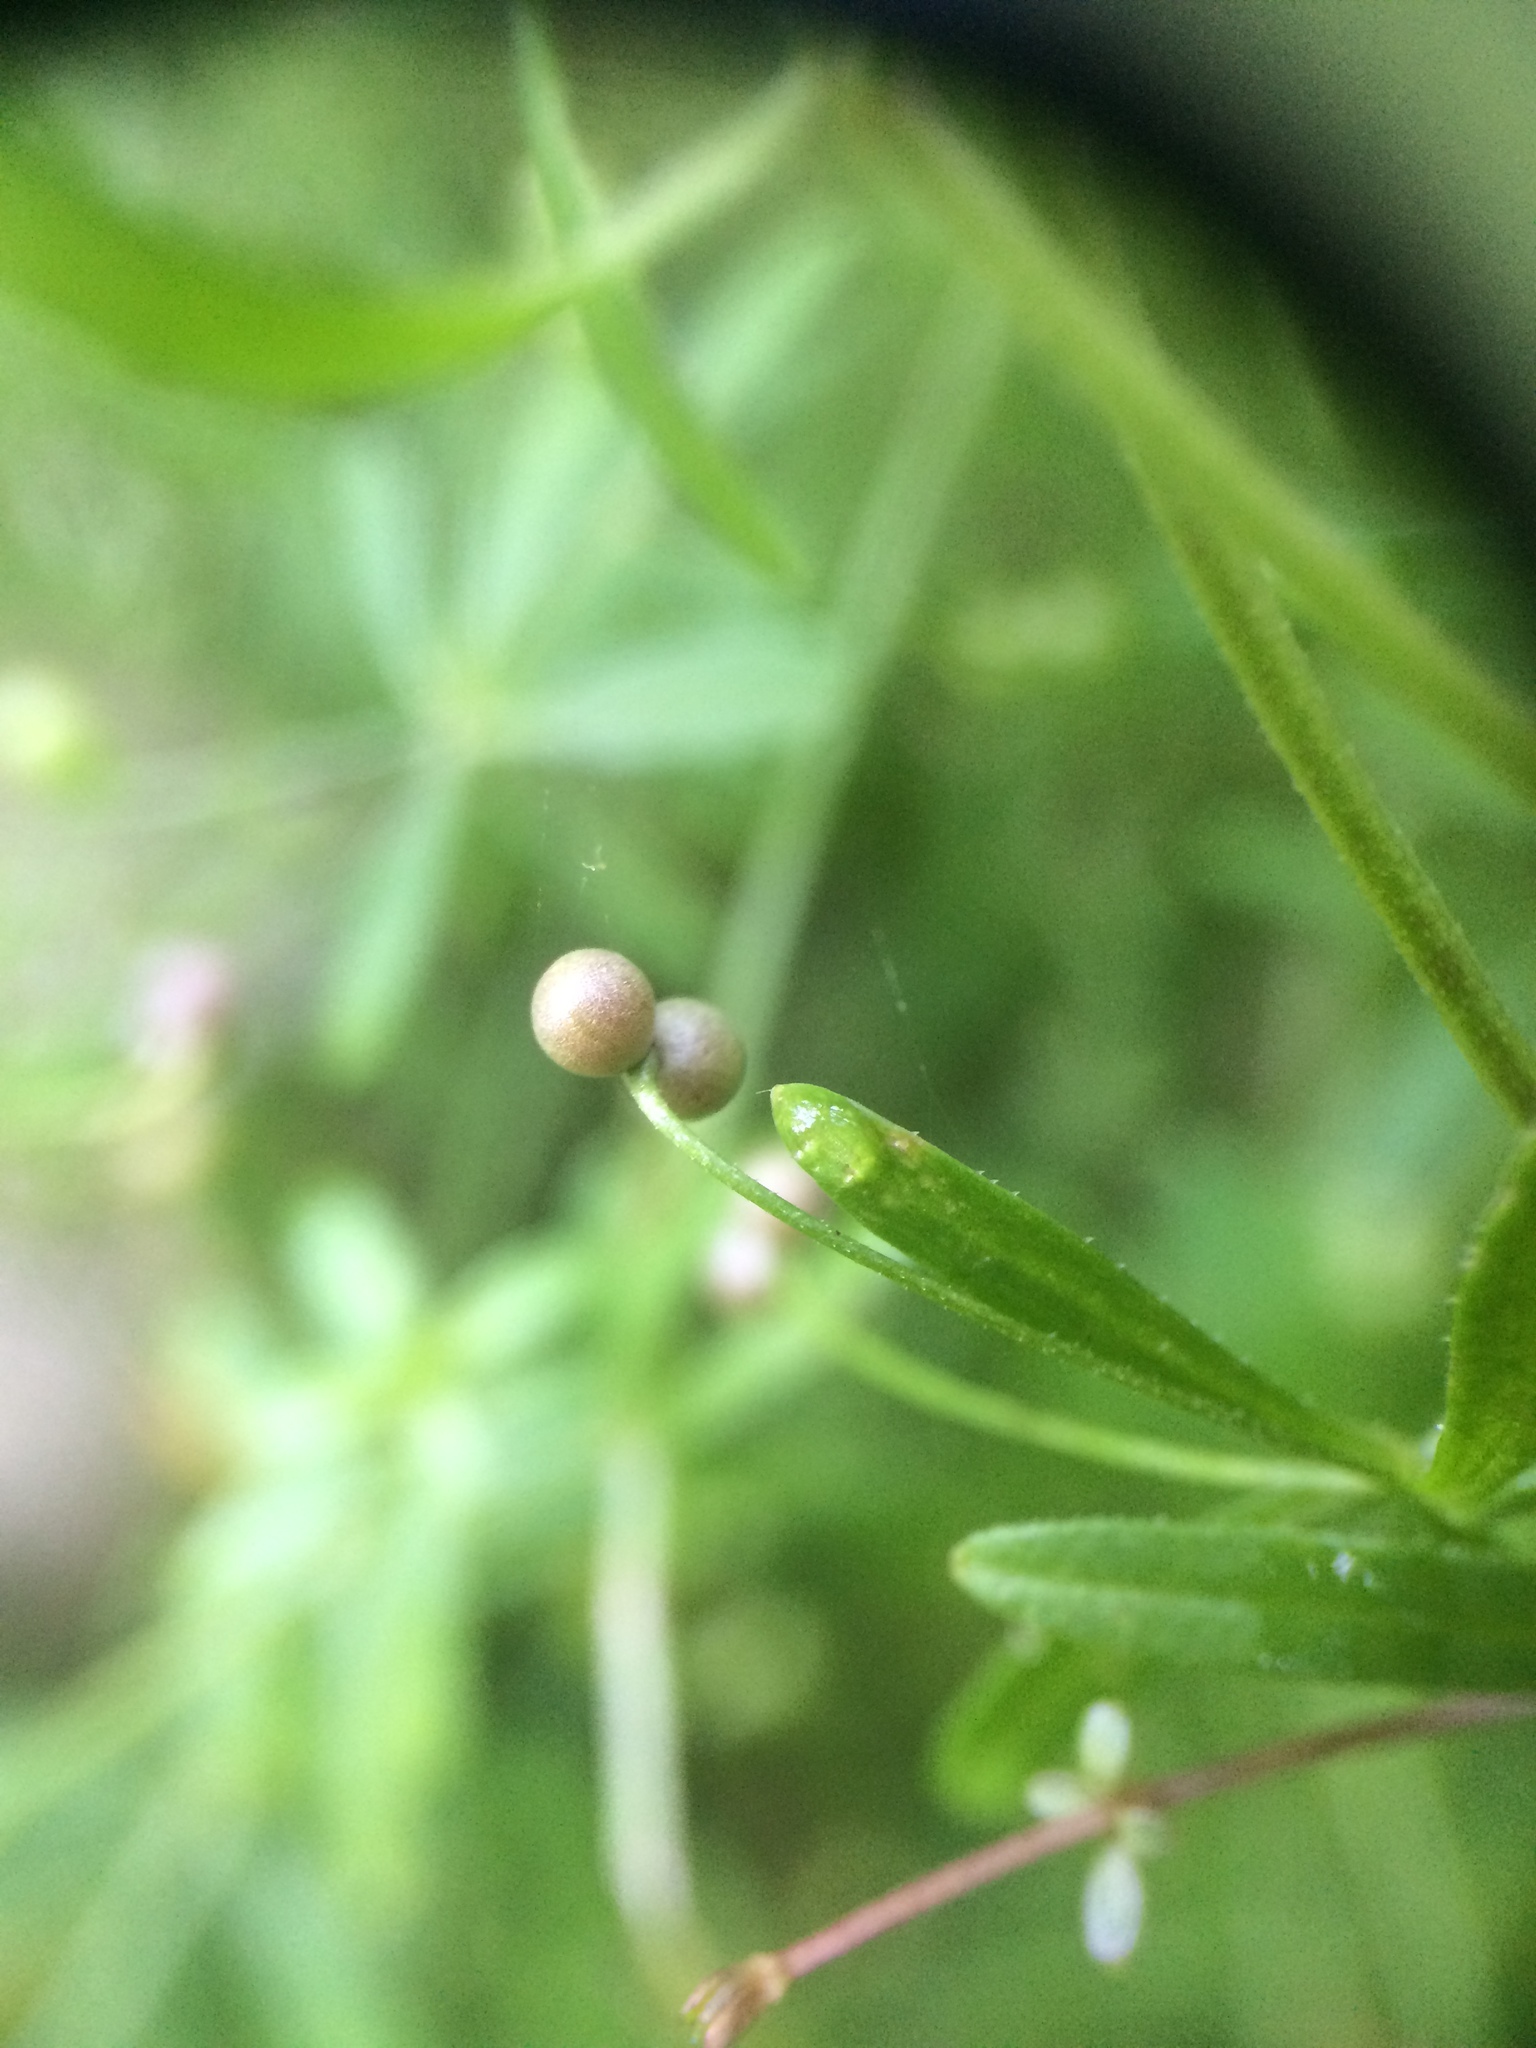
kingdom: Plantae
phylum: Tracheophyta
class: Magnoliopsida
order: Gentianales
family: Rubiaceae
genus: Galium
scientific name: Galium trifidum
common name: Small bedstraw
